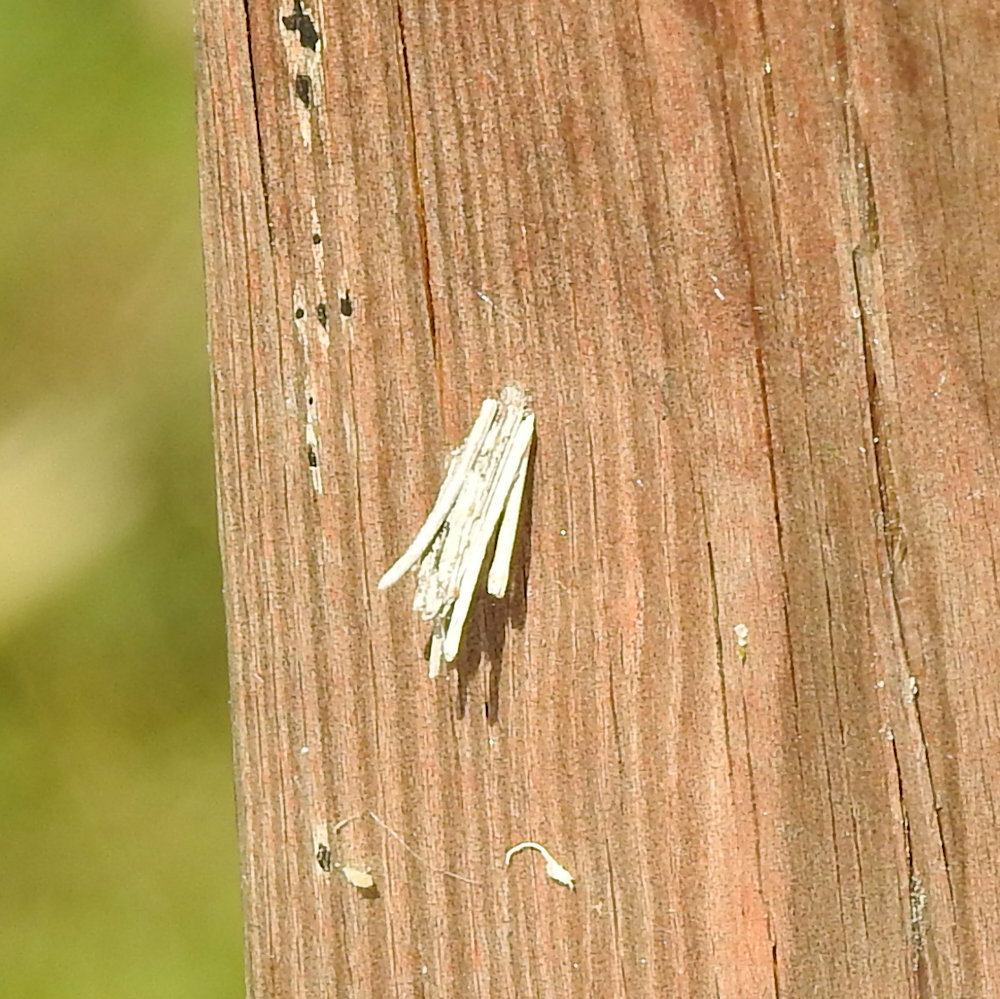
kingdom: Animalia
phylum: Arthropoda
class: Insecta
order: Lepidoptera
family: Psychidae
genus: Psyche
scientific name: Psyche casta
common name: Common sweep
